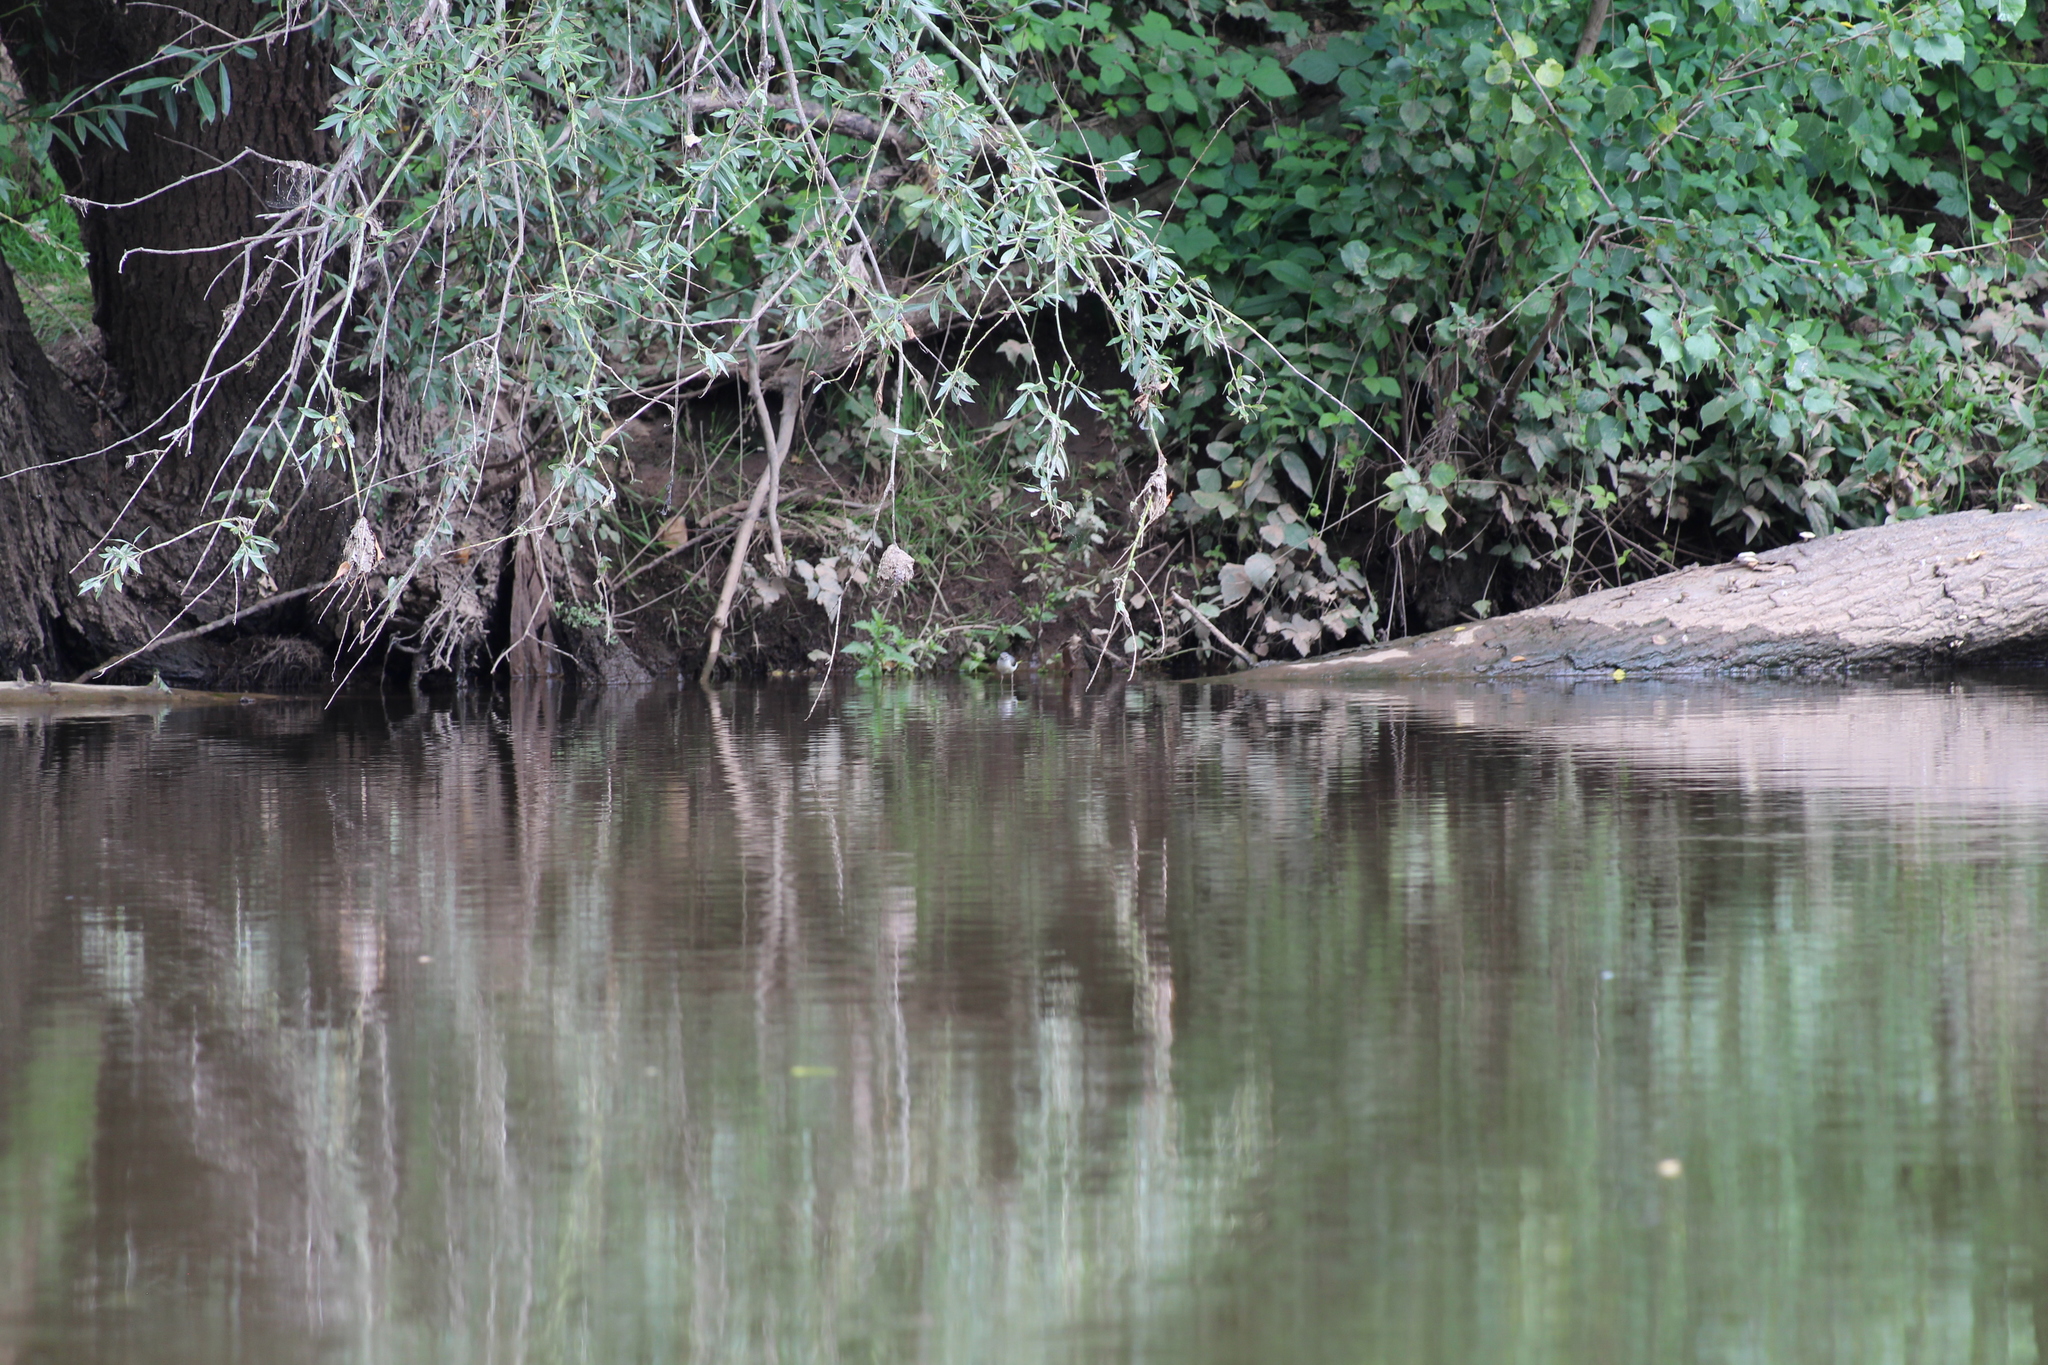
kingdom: Animalia
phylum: Chordata
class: Aves
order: Passeriformes
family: Motacillidae
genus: Motacilla
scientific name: Motacilla cinerea
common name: Grey wagtail
